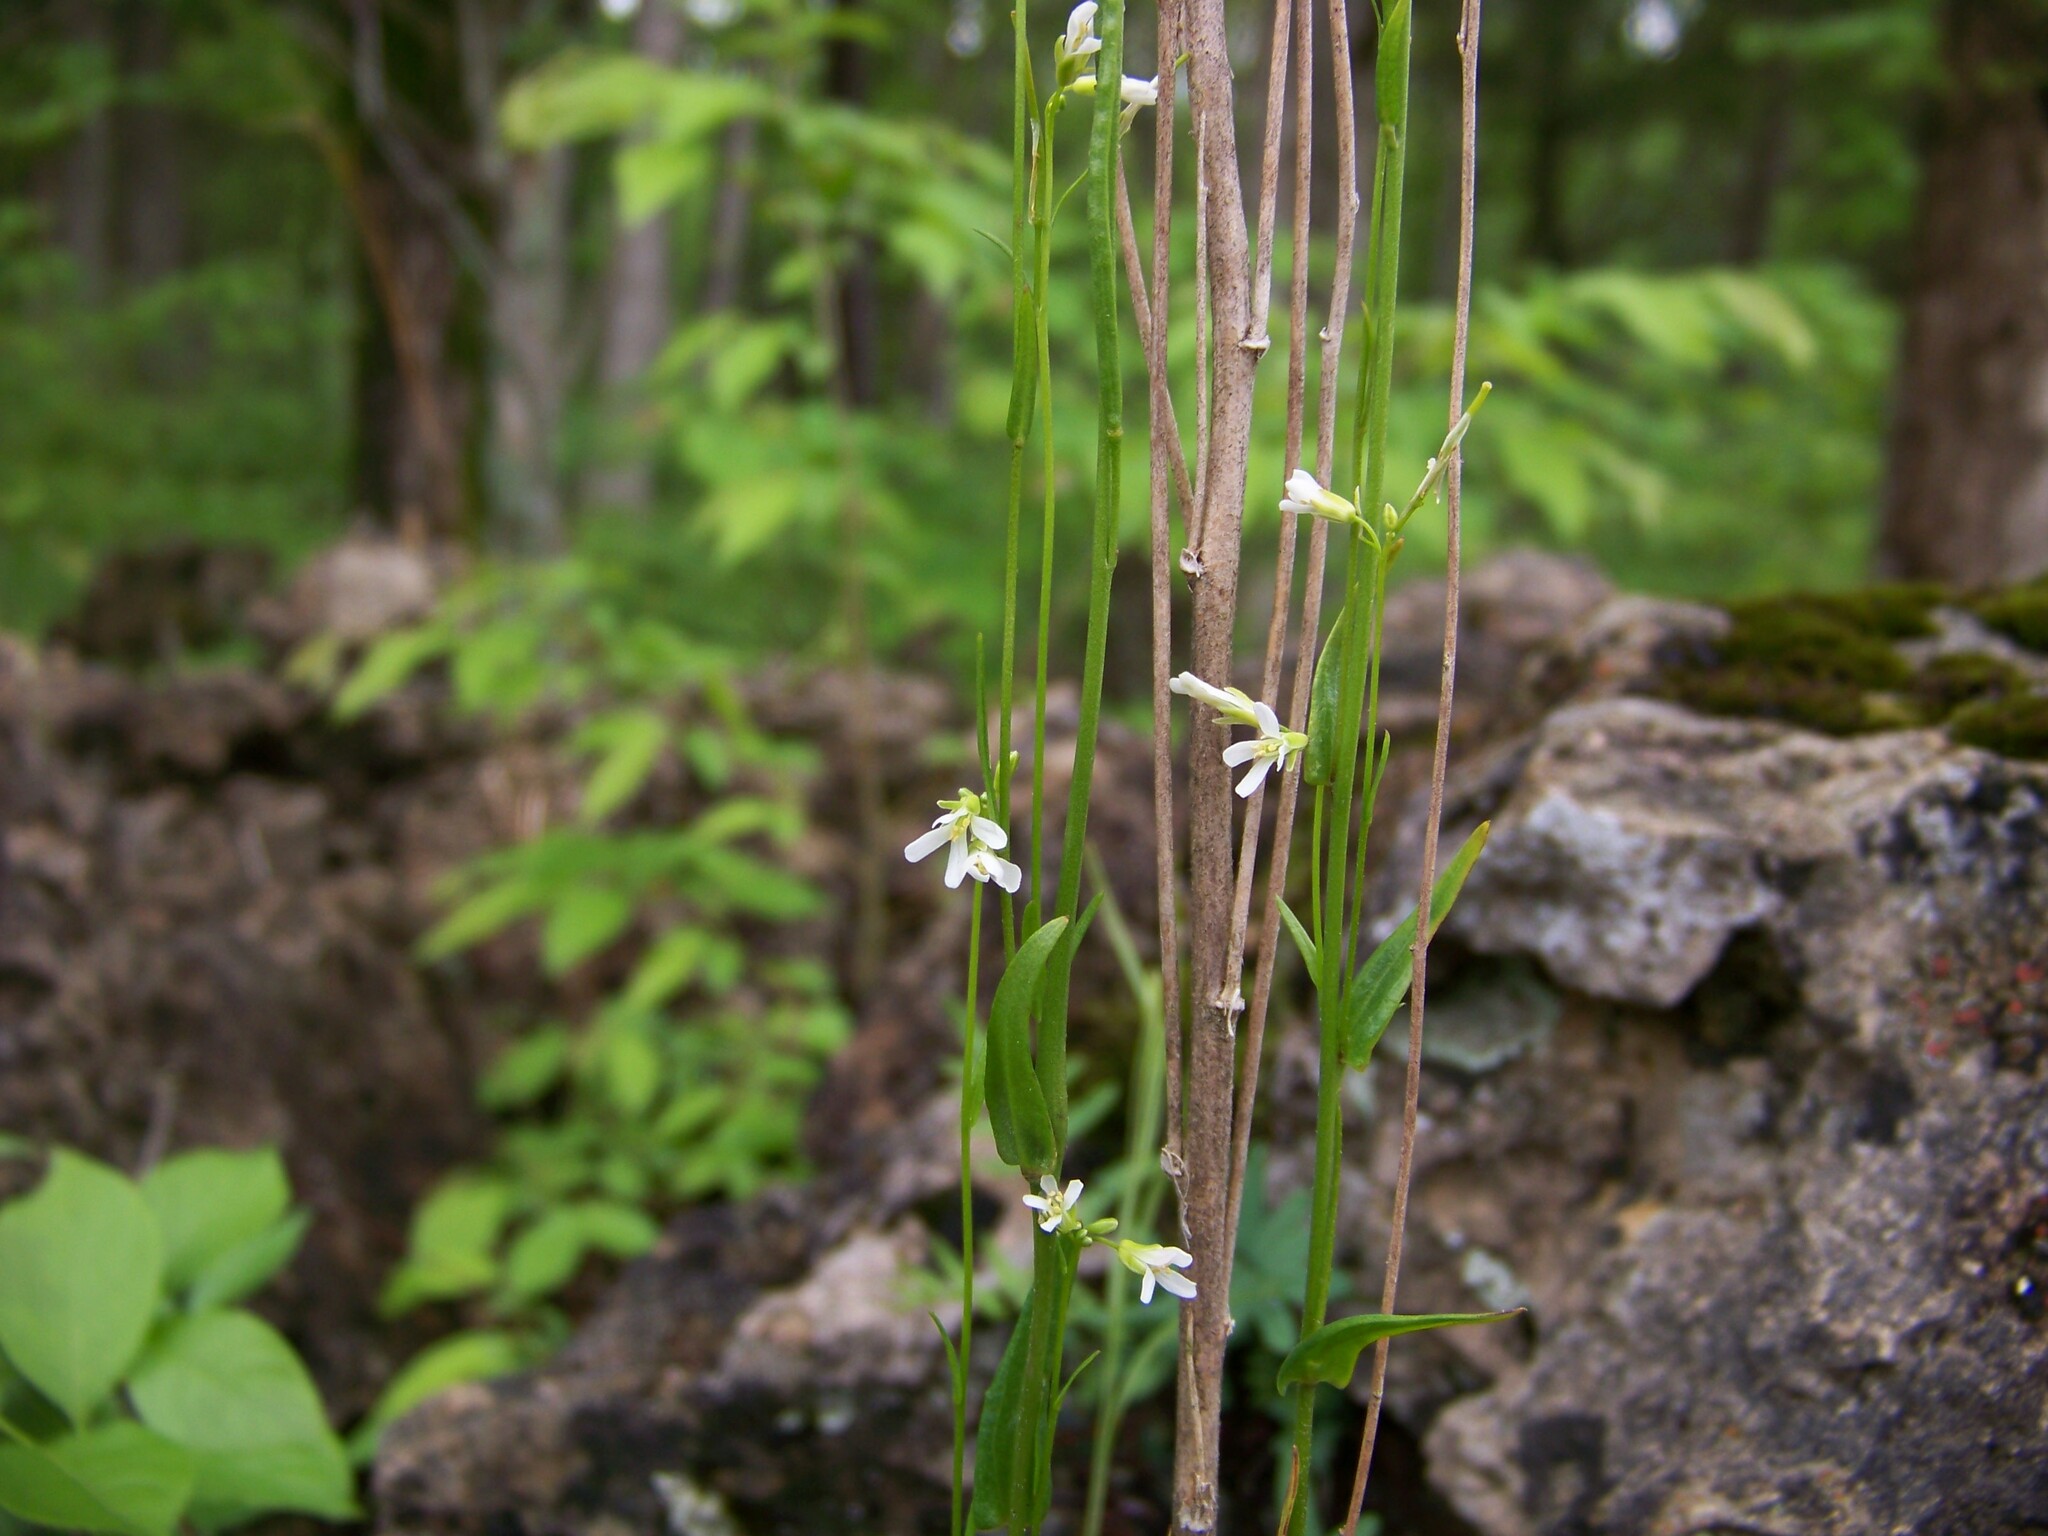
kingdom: Plantae
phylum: Tracheophyta
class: Magnoliopsida
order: Brassicales
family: Brassicaceae
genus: Arabis
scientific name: Arabis pycnocarpa
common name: Blushing rockcress
